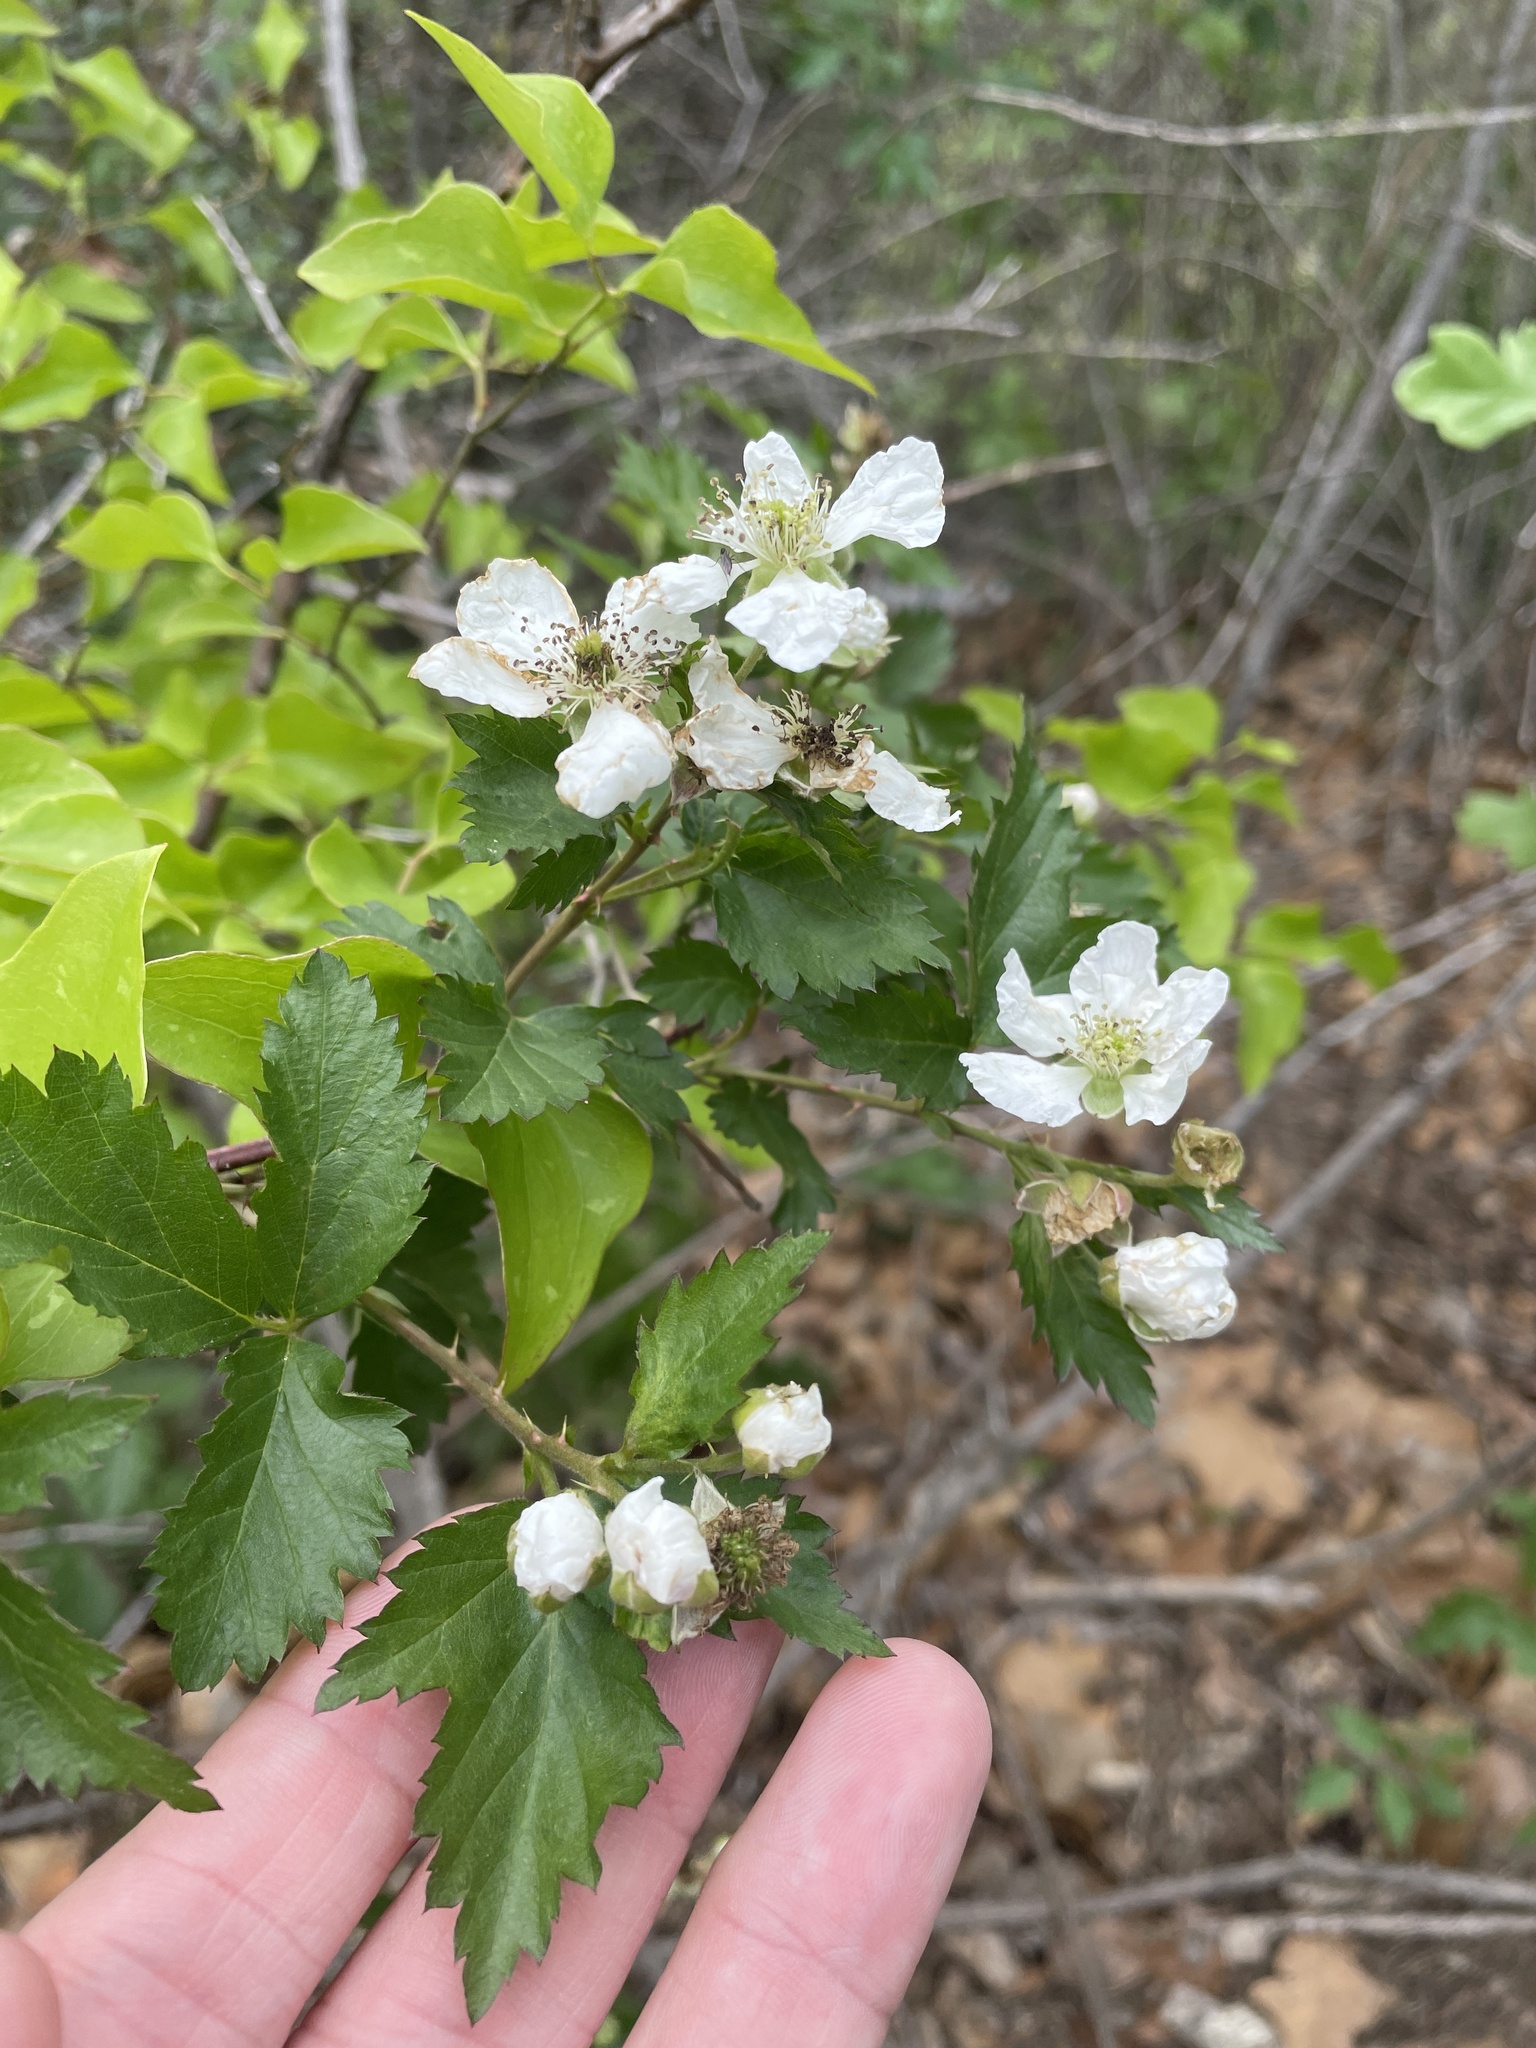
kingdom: Plantae
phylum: Tracheophyta
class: Magnoliopsida
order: Rosales
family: Rosaceae
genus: Rubus
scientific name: Rubus oklahomus
